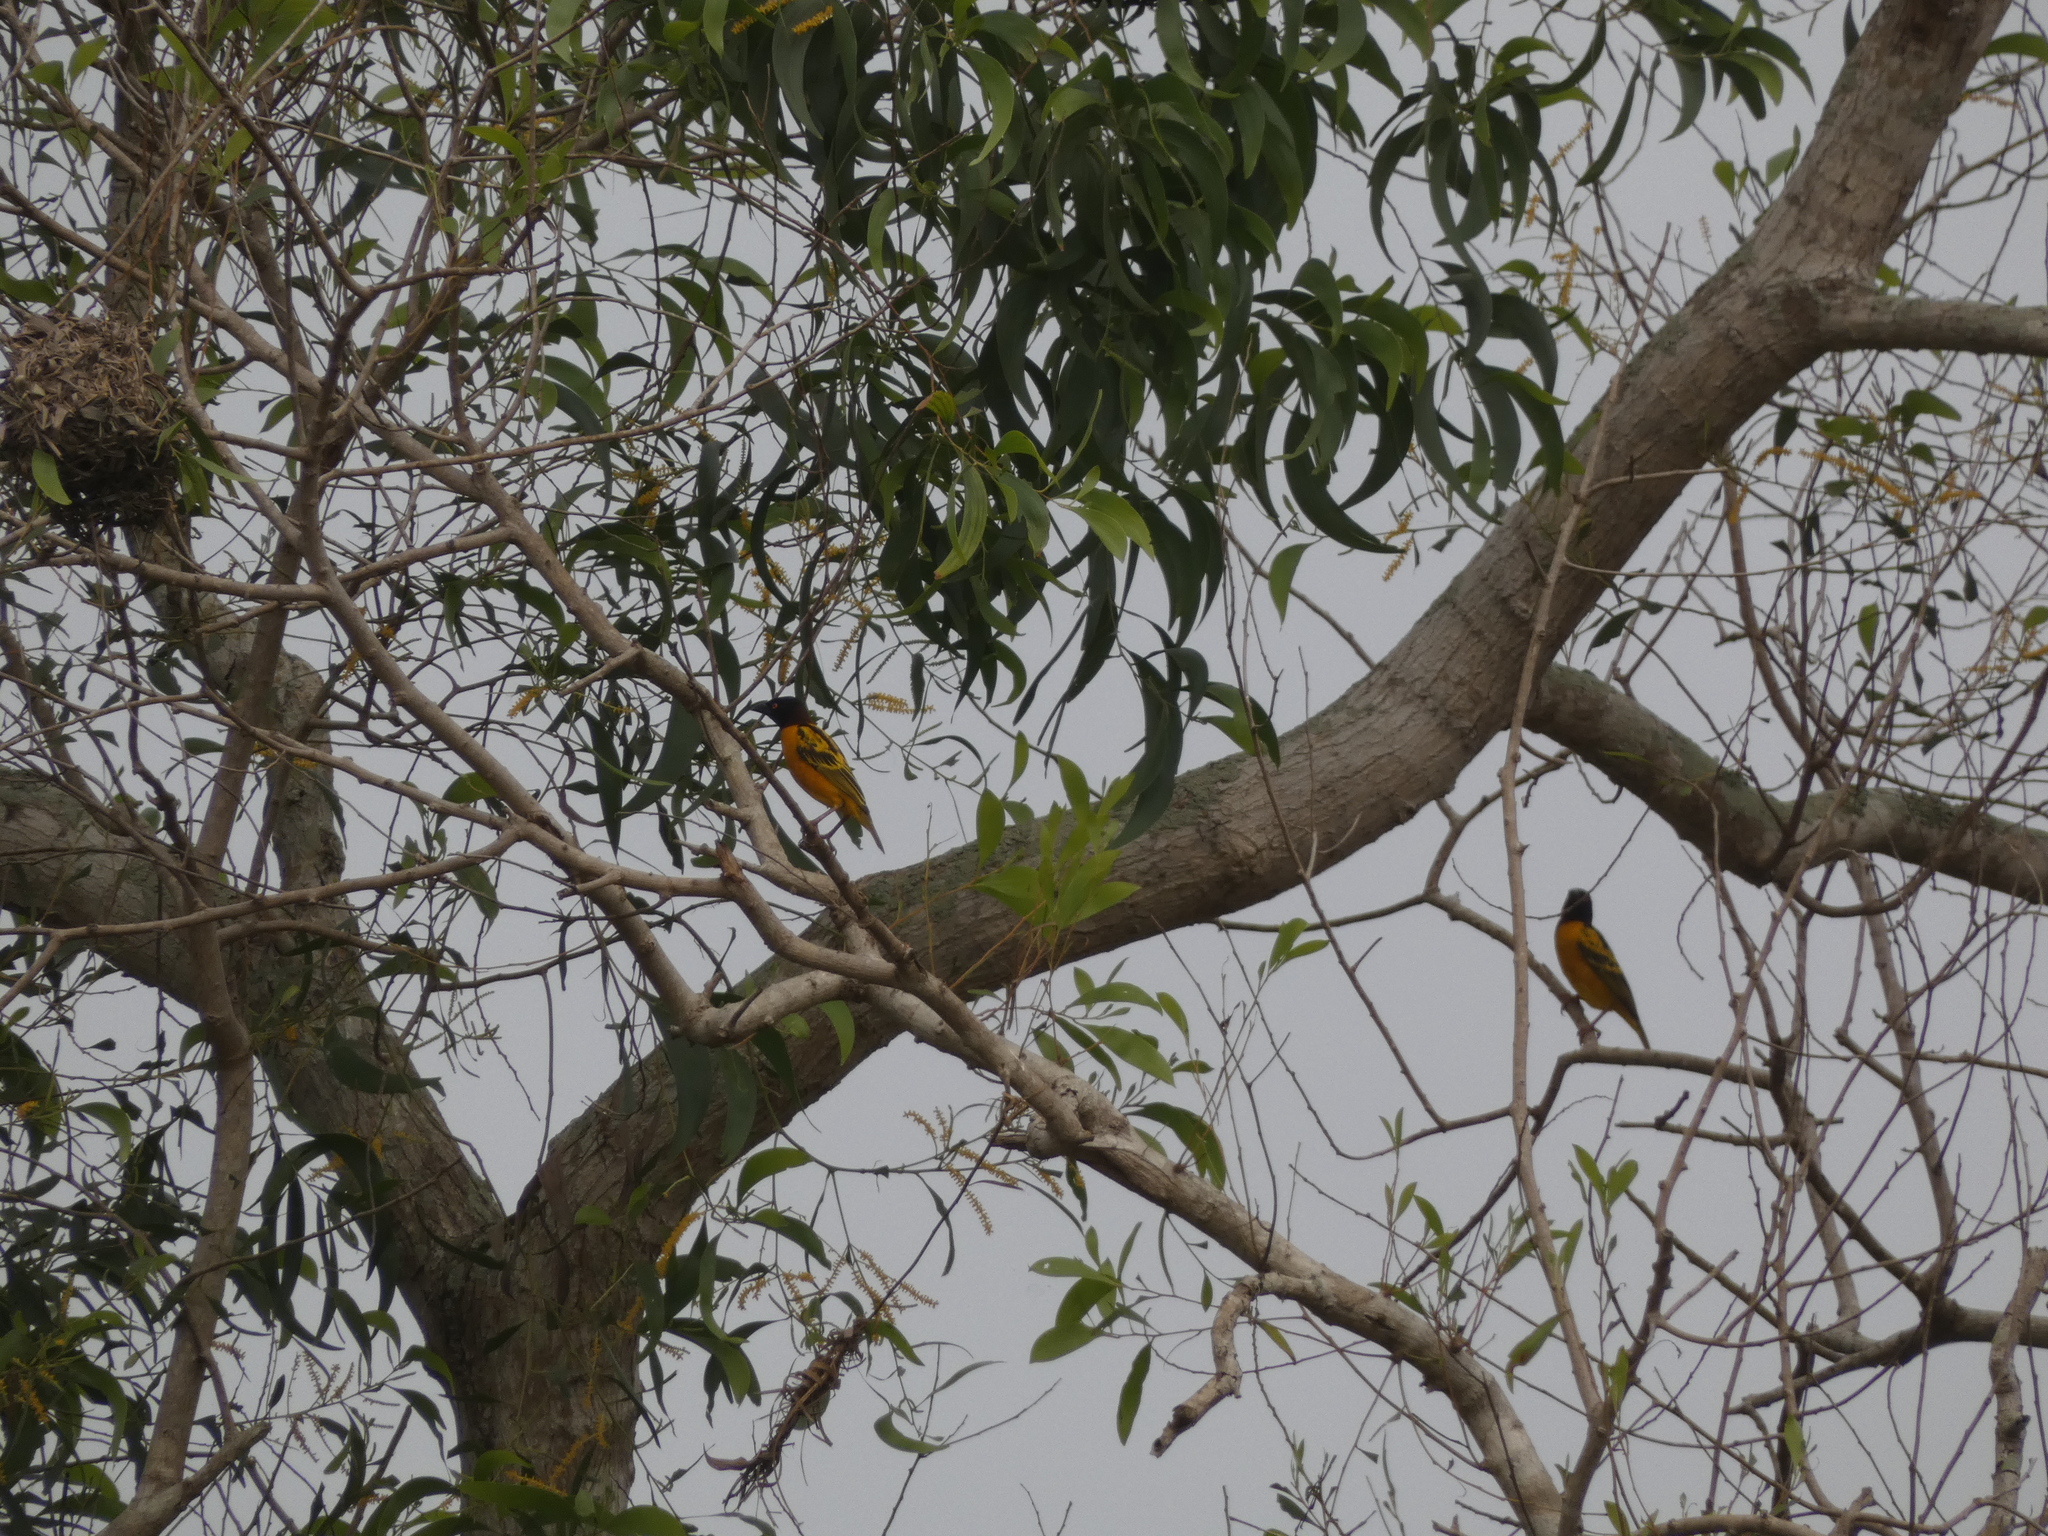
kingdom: Animalia
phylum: Chordata
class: Aves
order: Passeriformes
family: Ploceidae
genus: Ploceus
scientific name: Ploceus cucullatus
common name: Village weaver
